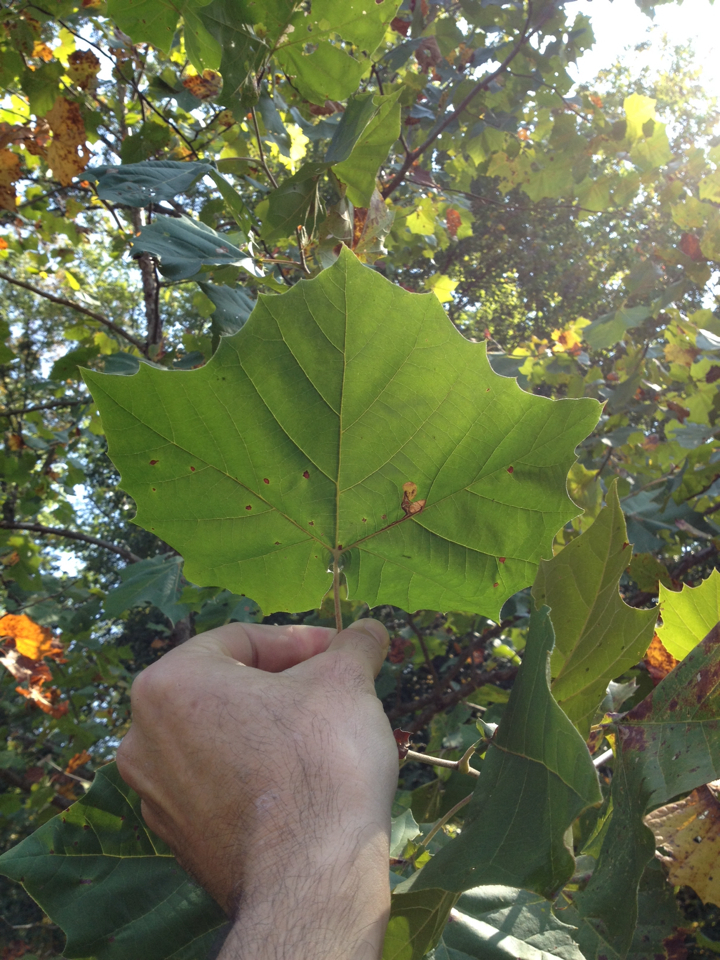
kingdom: Plantae
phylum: Tracheophyta
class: Magnoliopsida
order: Proteales
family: Platanaceae
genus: Platanus
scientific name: Platanus occidentalis
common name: American sycamore
